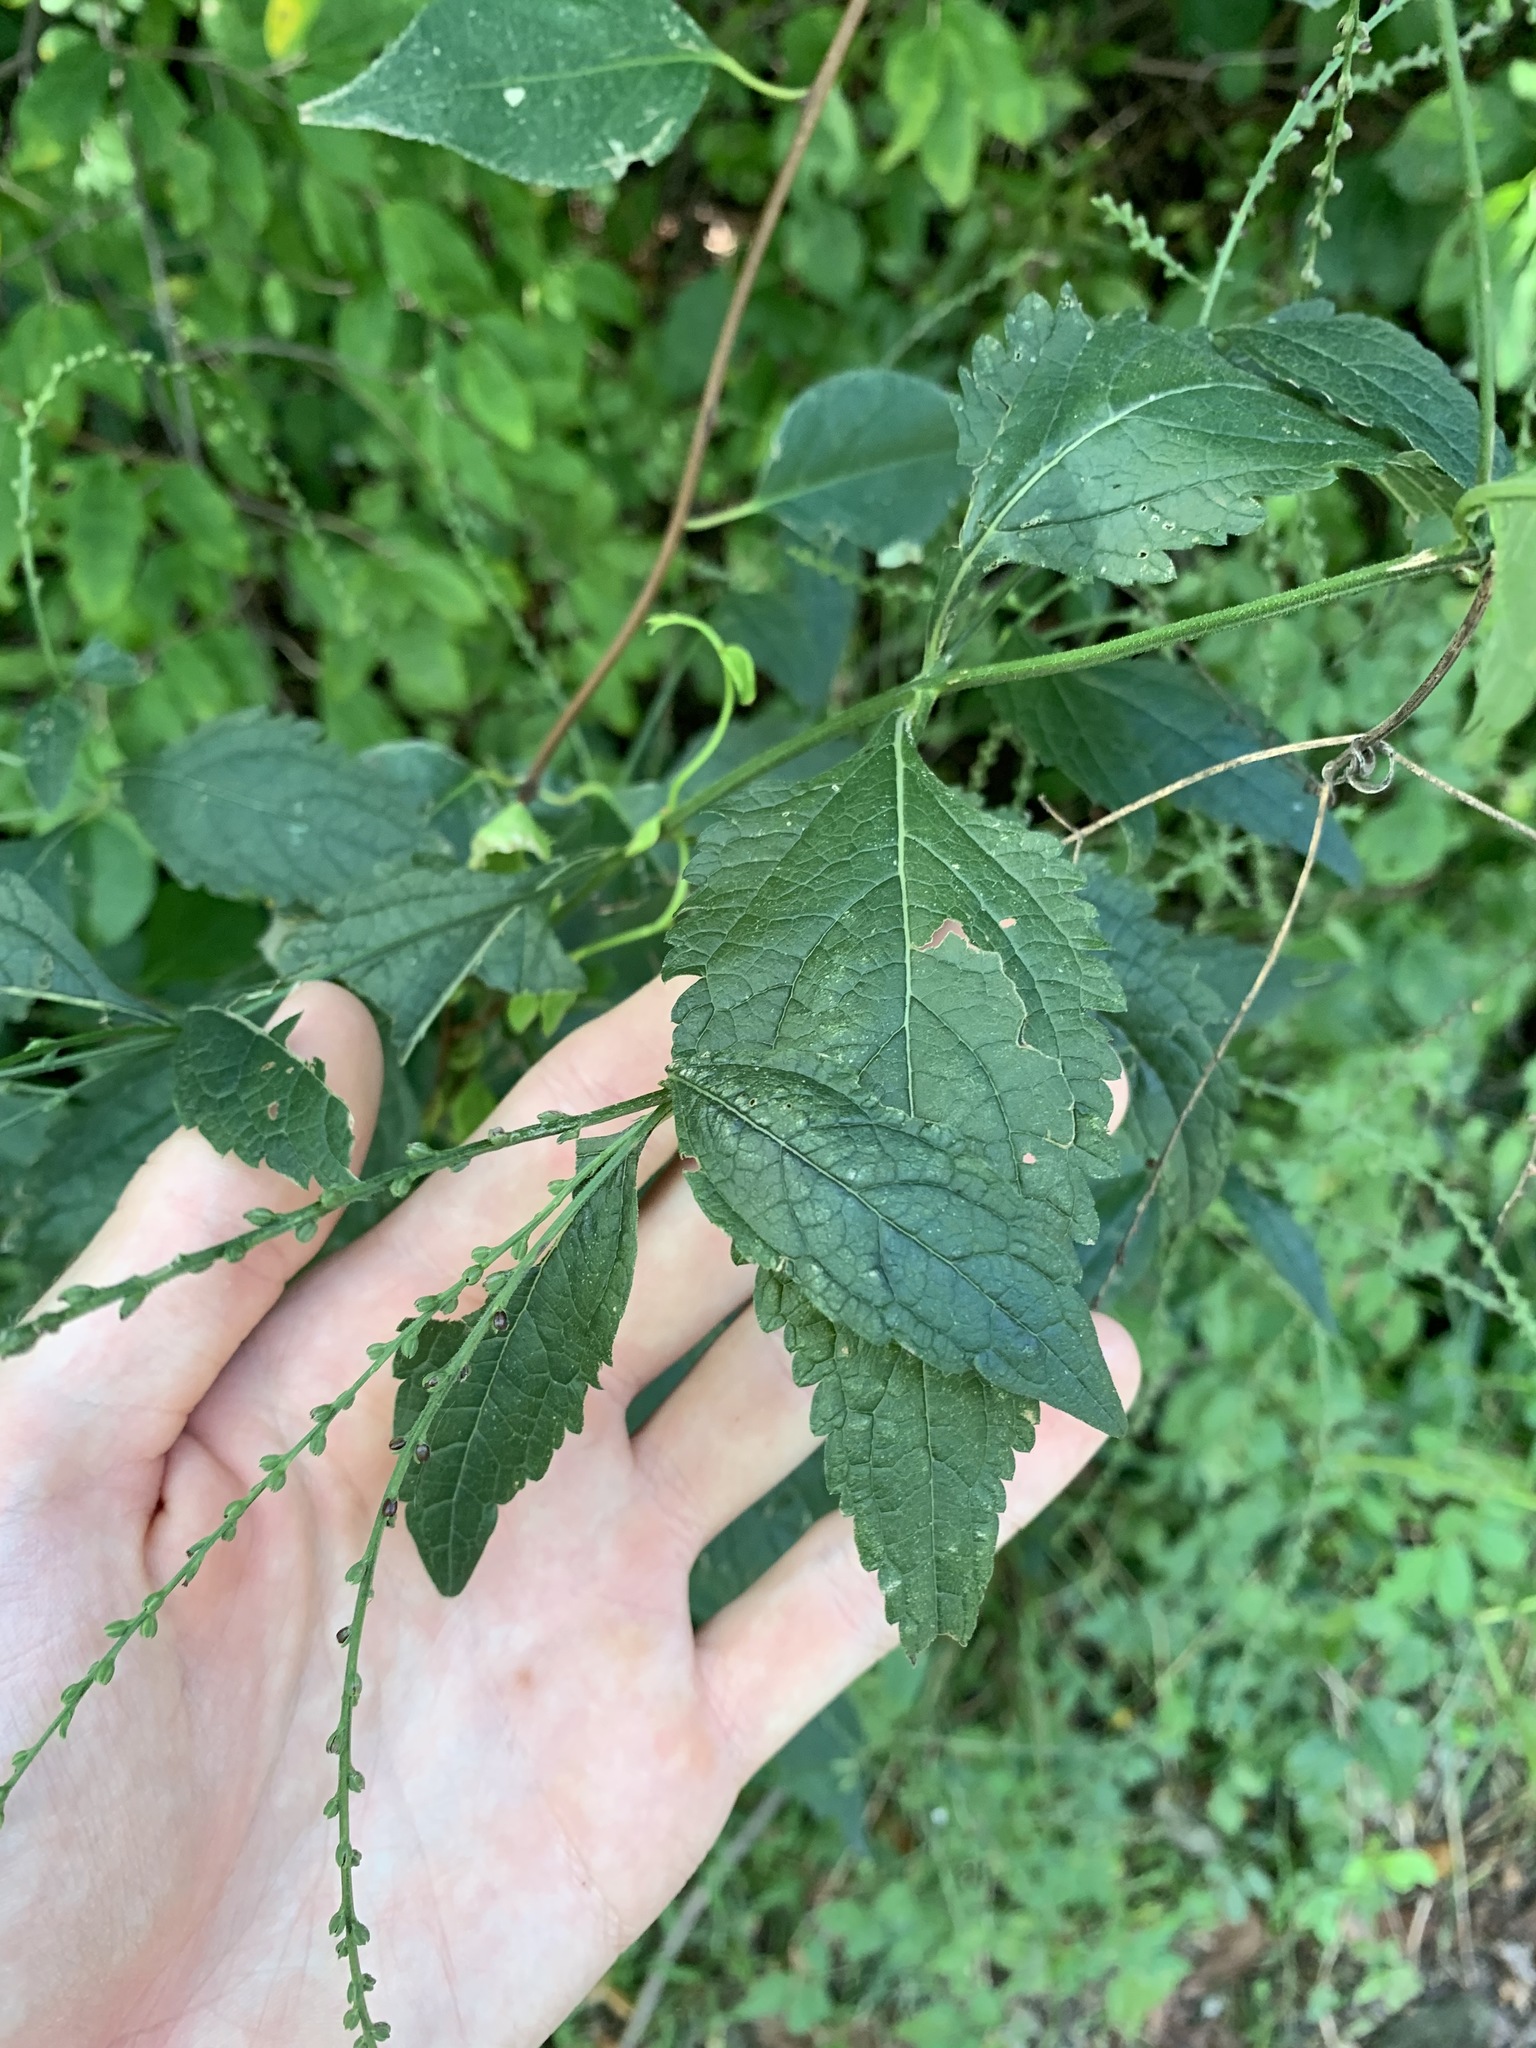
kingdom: Plantae
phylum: Tracheophyta
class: Magnoliopsida
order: Lamiales
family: Verbenaceae
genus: Verbena
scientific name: Verbena urticifolia
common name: Nettle-leaved vervain
